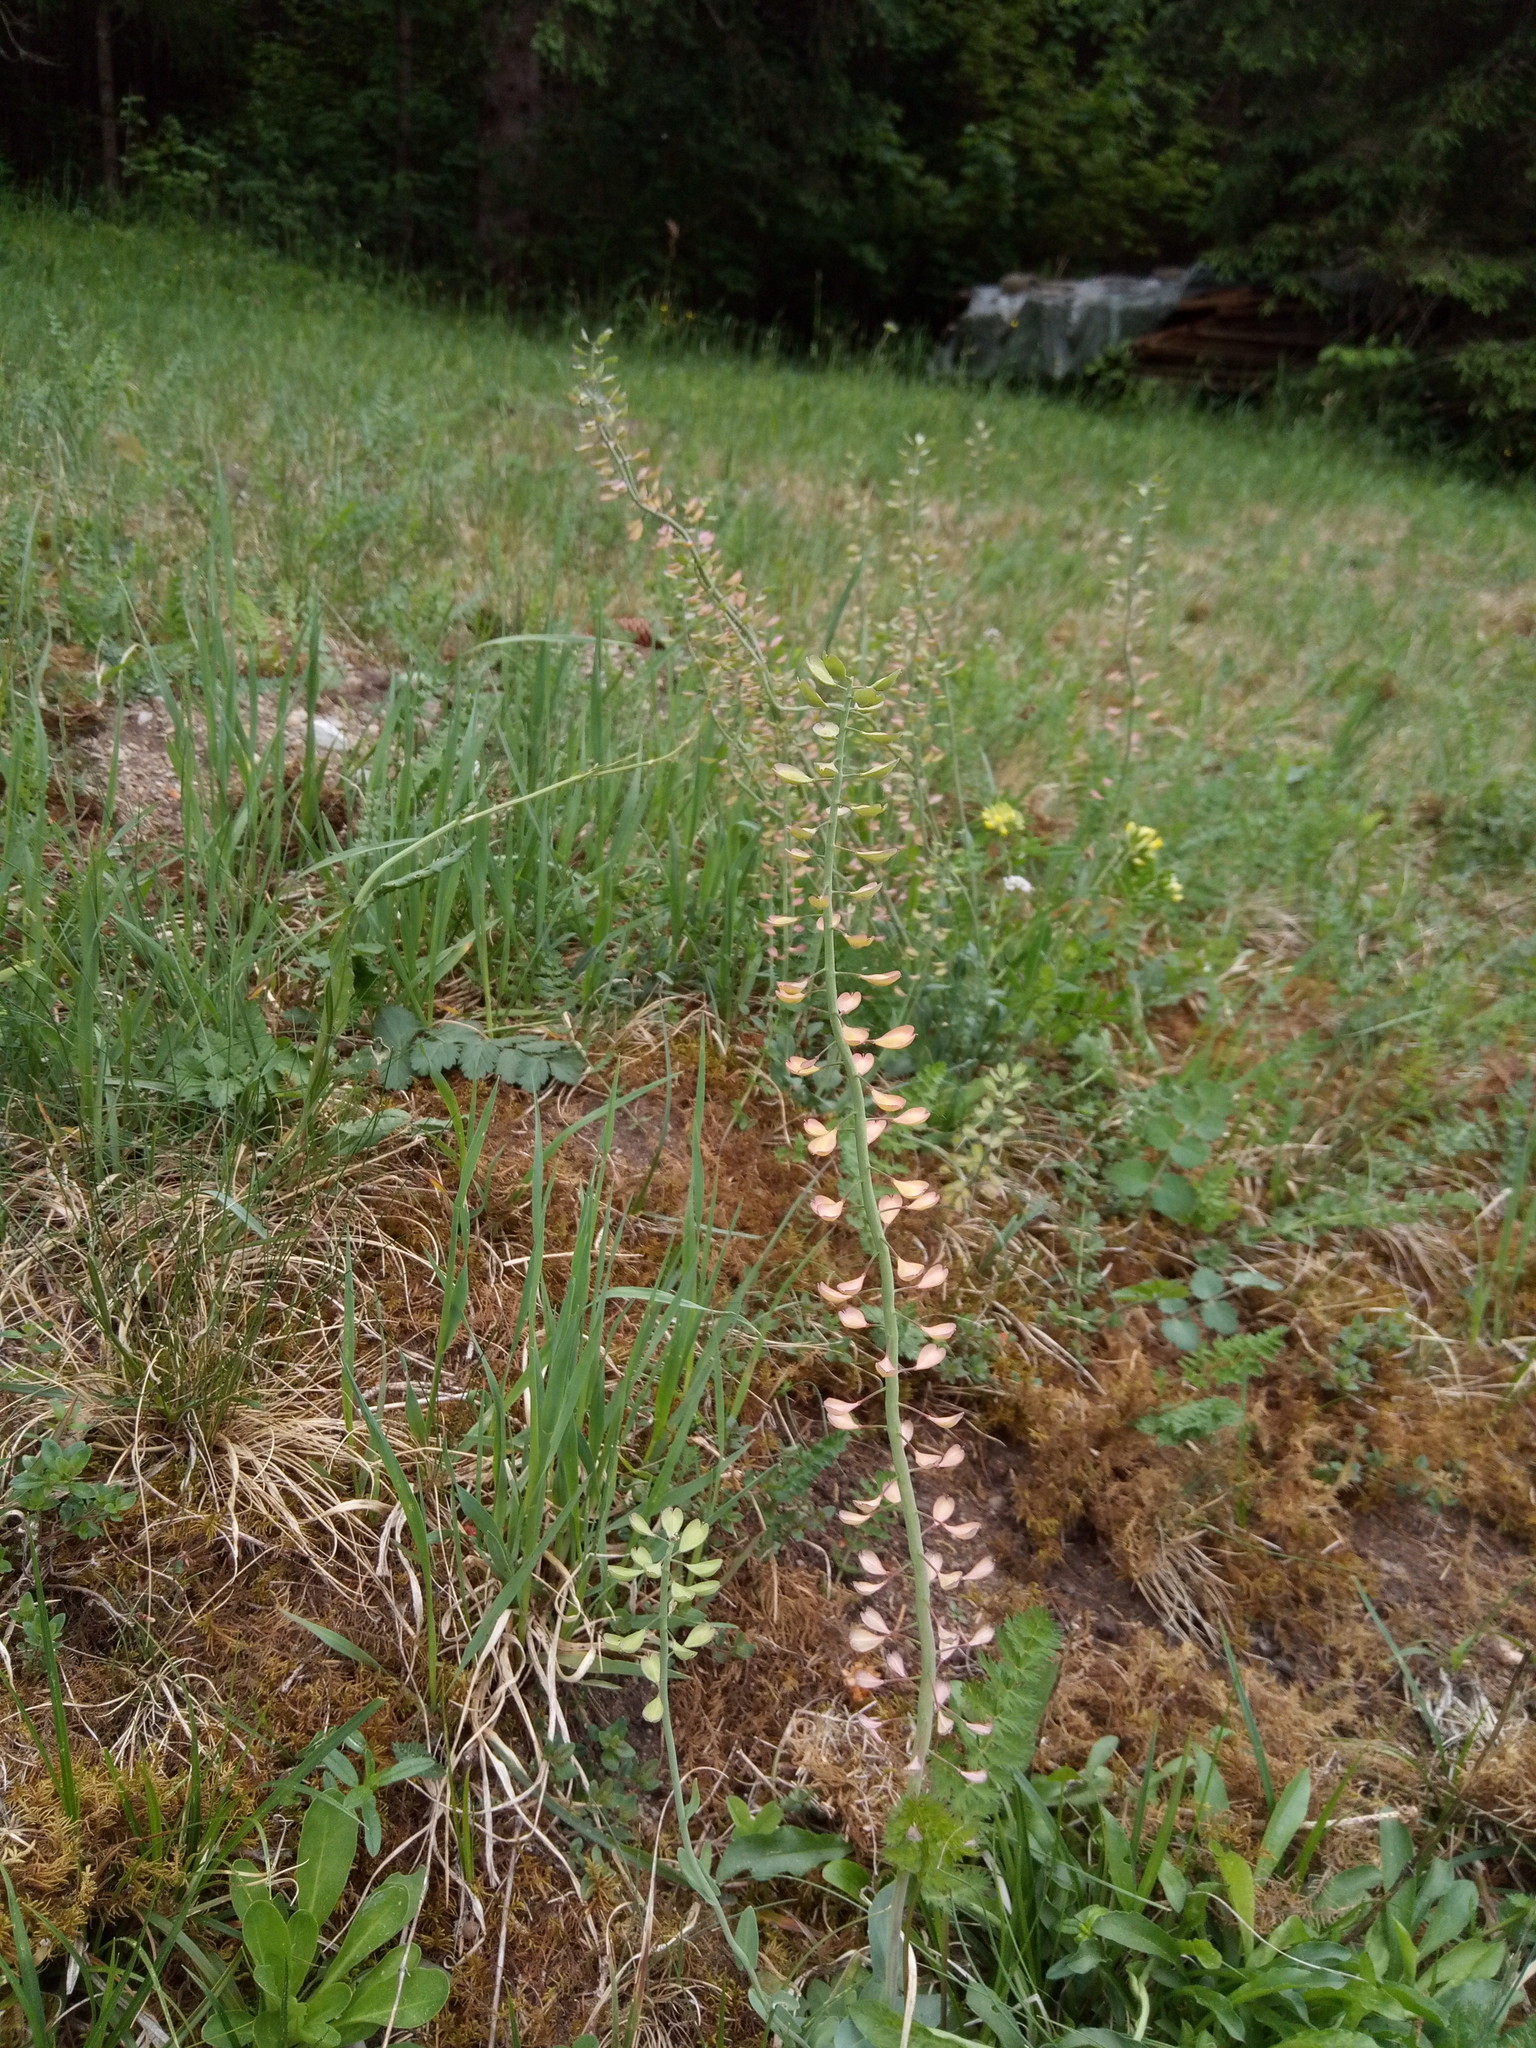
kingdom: Plantae
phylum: Tracheophyta
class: Magnoliopsida
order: Brassicales
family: Brassicaceae
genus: Noccaea
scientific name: Noccaea caerulescens
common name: Alpine pennycress
